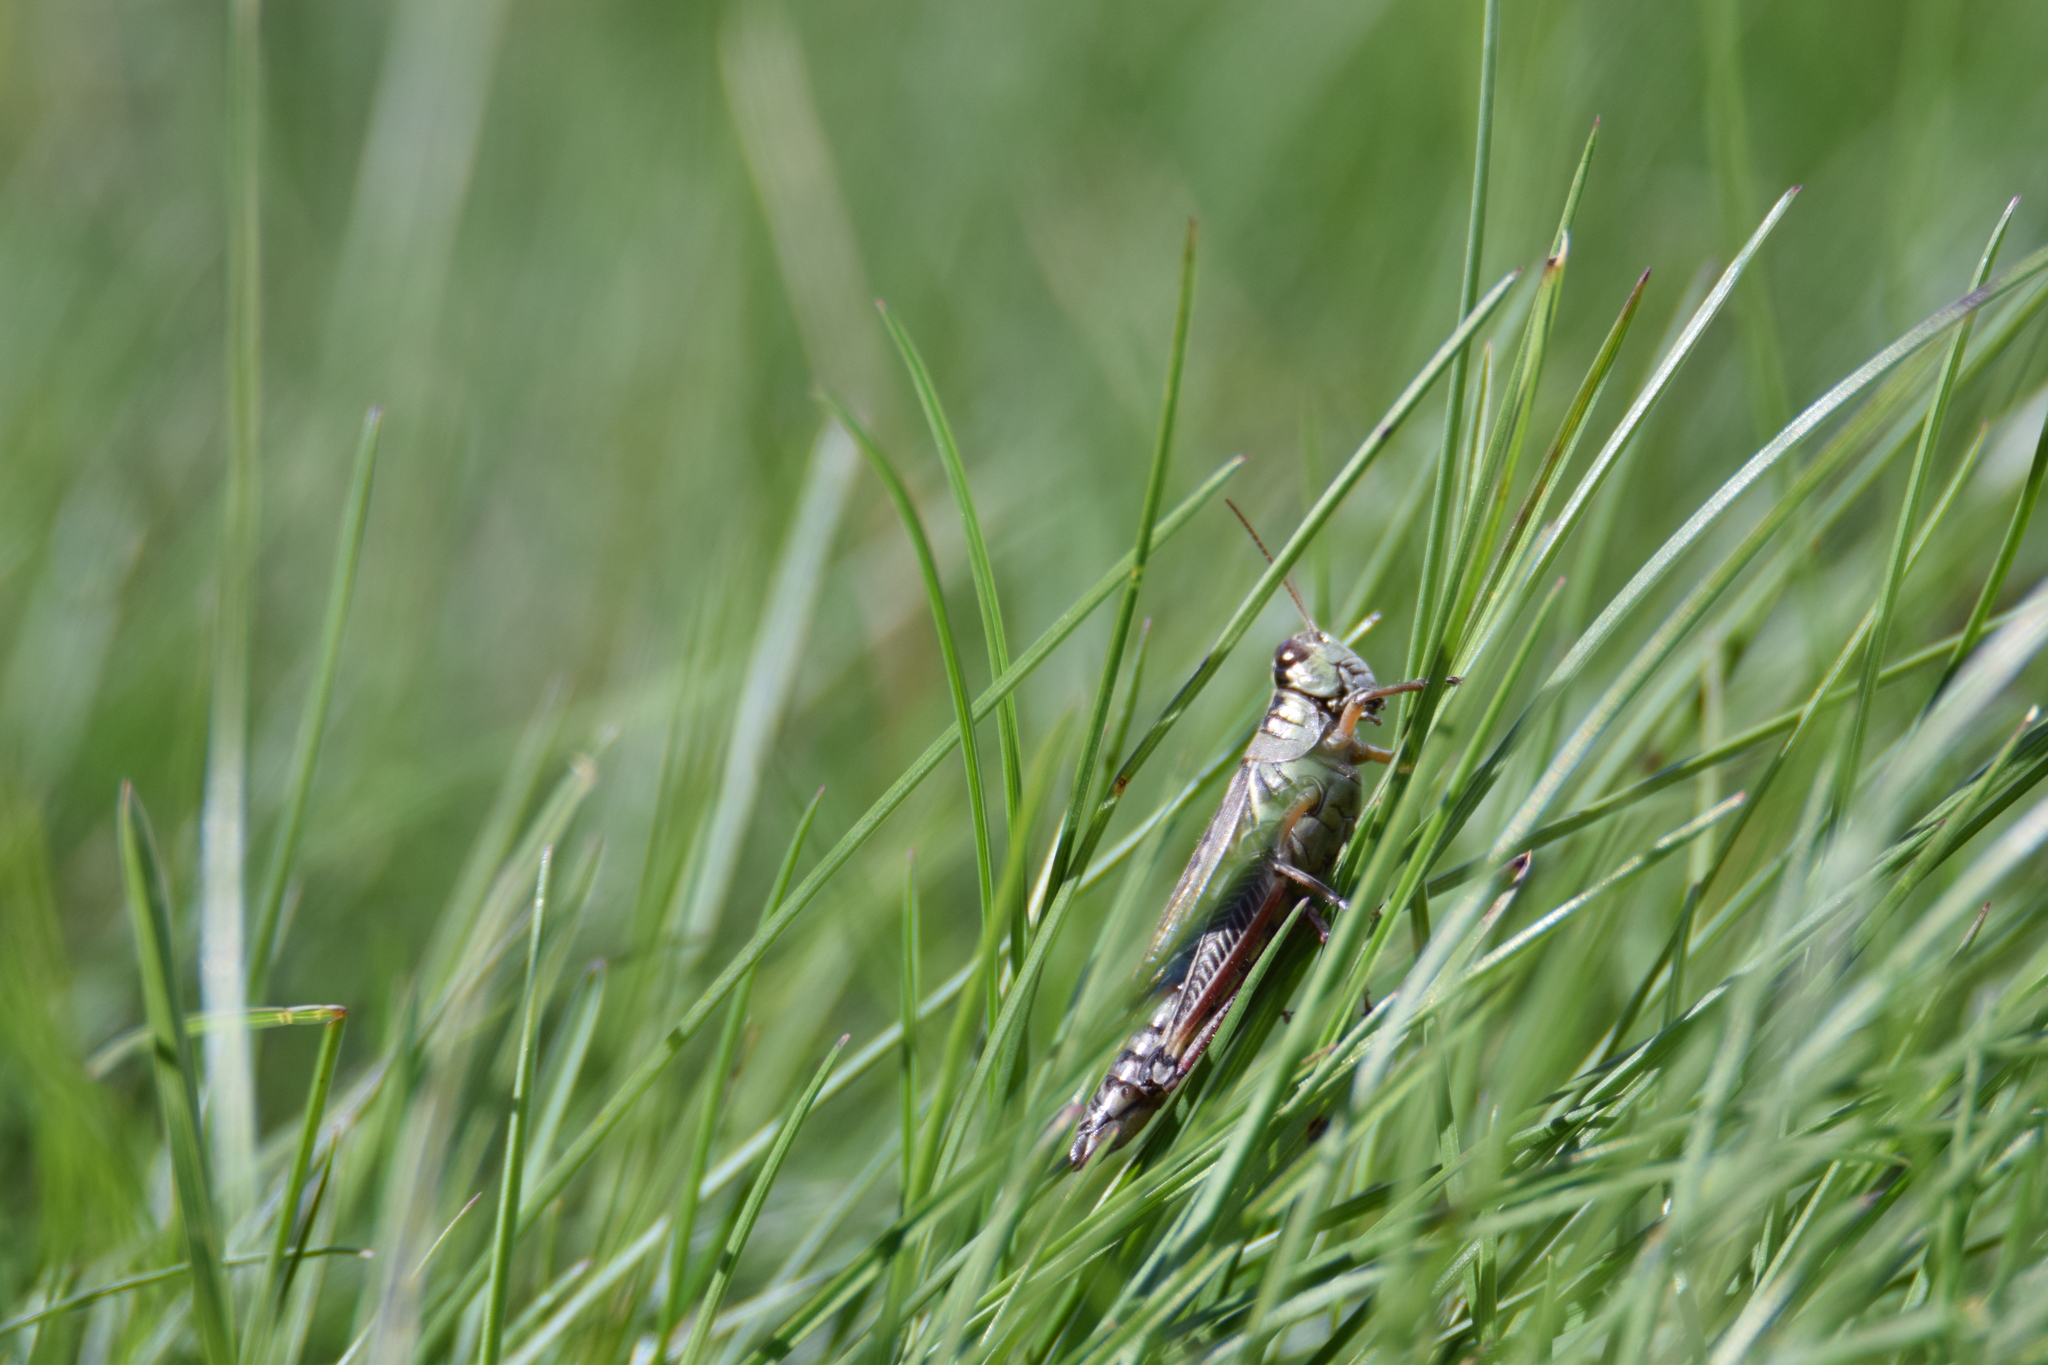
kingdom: Animalia
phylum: Arthropoda
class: Insecta
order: Orthoptera
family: Acrididae
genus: Melanoplus
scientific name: Melanoplus femurrubrum
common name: Red-legged grasshopper
